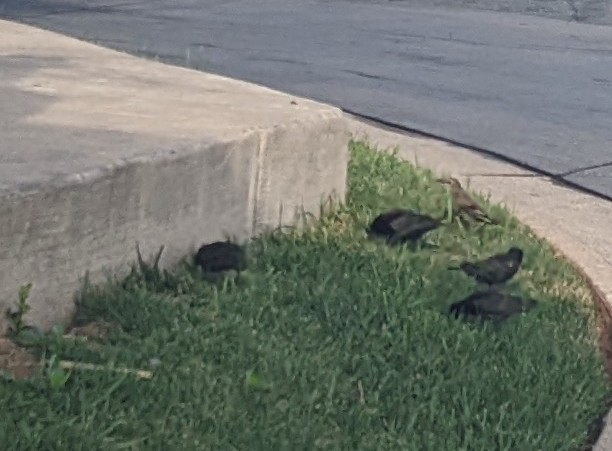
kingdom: Animalia
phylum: Chordata
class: Aves
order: Passeriformes
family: Sturnidae
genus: Sturnus
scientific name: Sturnus vulgaris
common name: Common starling
